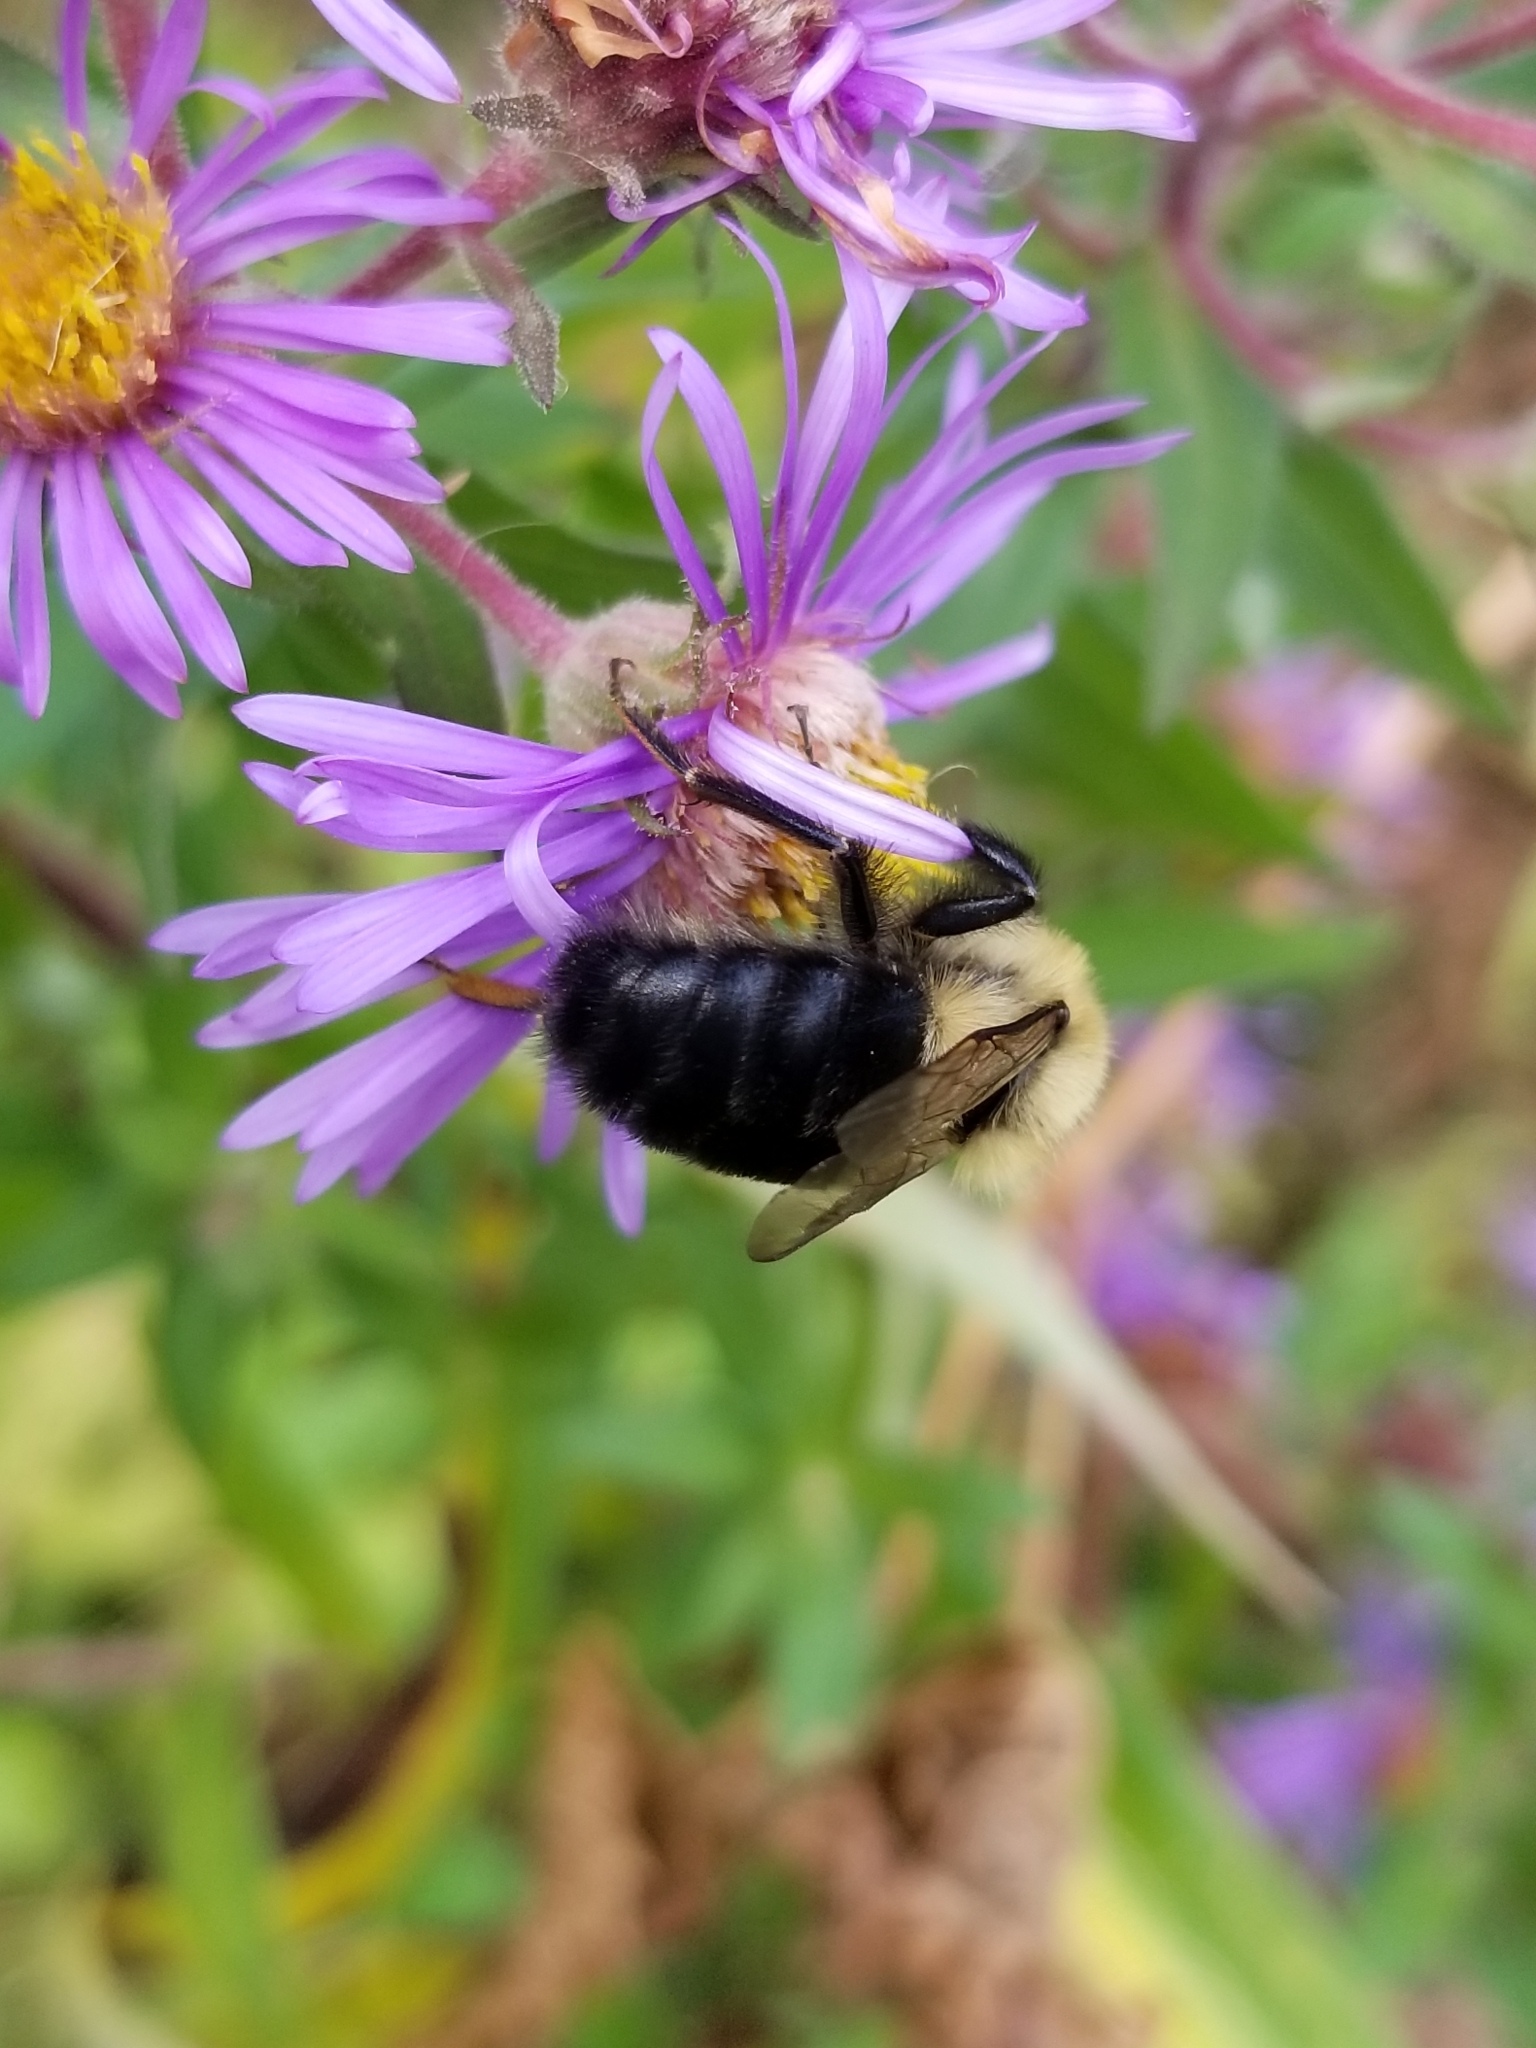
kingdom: Animalia
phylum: Arthropoda
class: Insecta
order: Hymenoptera
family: Apidae
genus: Bombus
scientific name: Bombus impatiens
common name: Common eastern bumble bee
